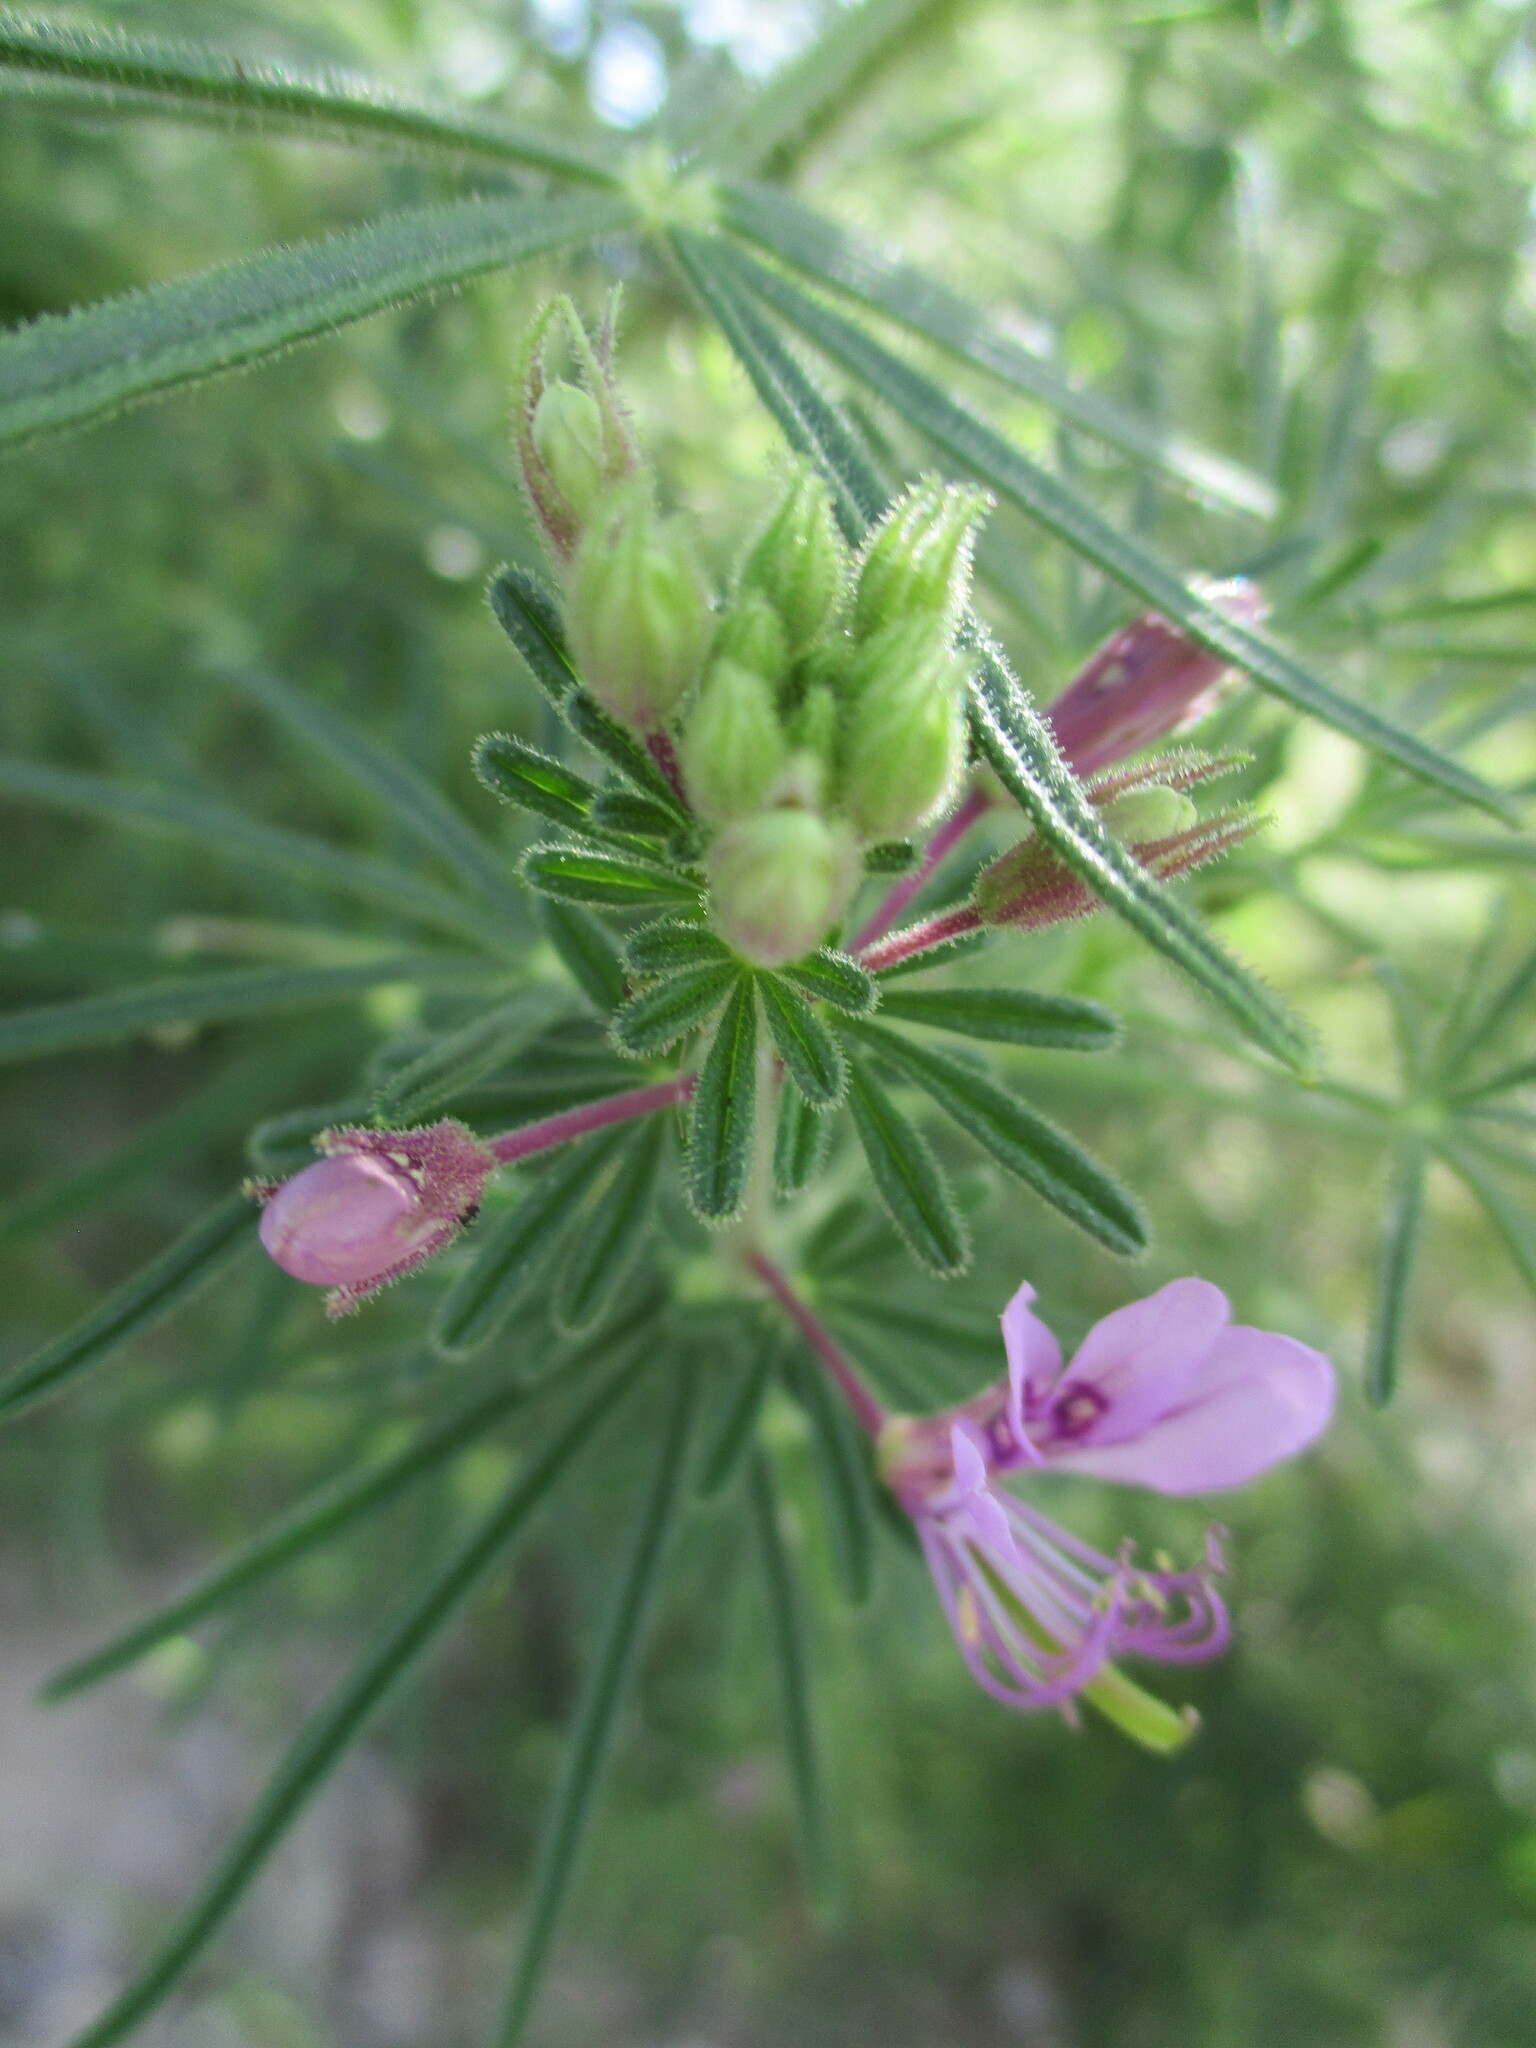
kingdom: Plantae
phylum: Tracheophyta
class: Magnoliopsida
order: Brassicales
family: Cleomaceae
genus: Sieruela
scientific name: Sieruela
